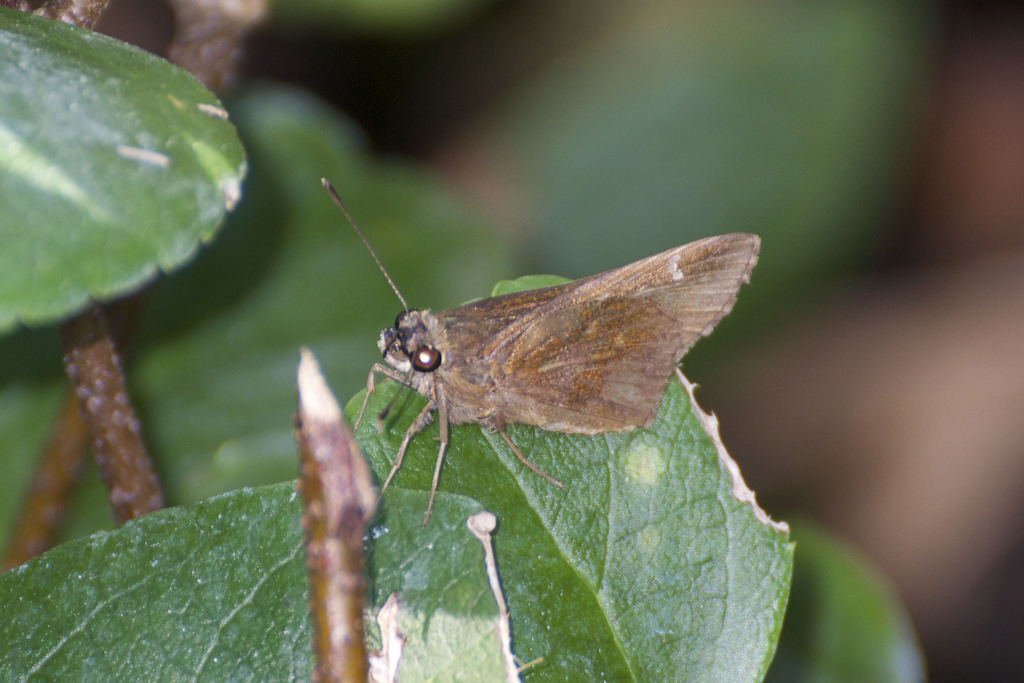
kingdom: Animalia
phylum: Arthropoda
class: Insecta
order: Lepidoptera
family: Hesperiidae
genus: Lerema
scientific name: Lerema accius
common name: Clouded skipper
